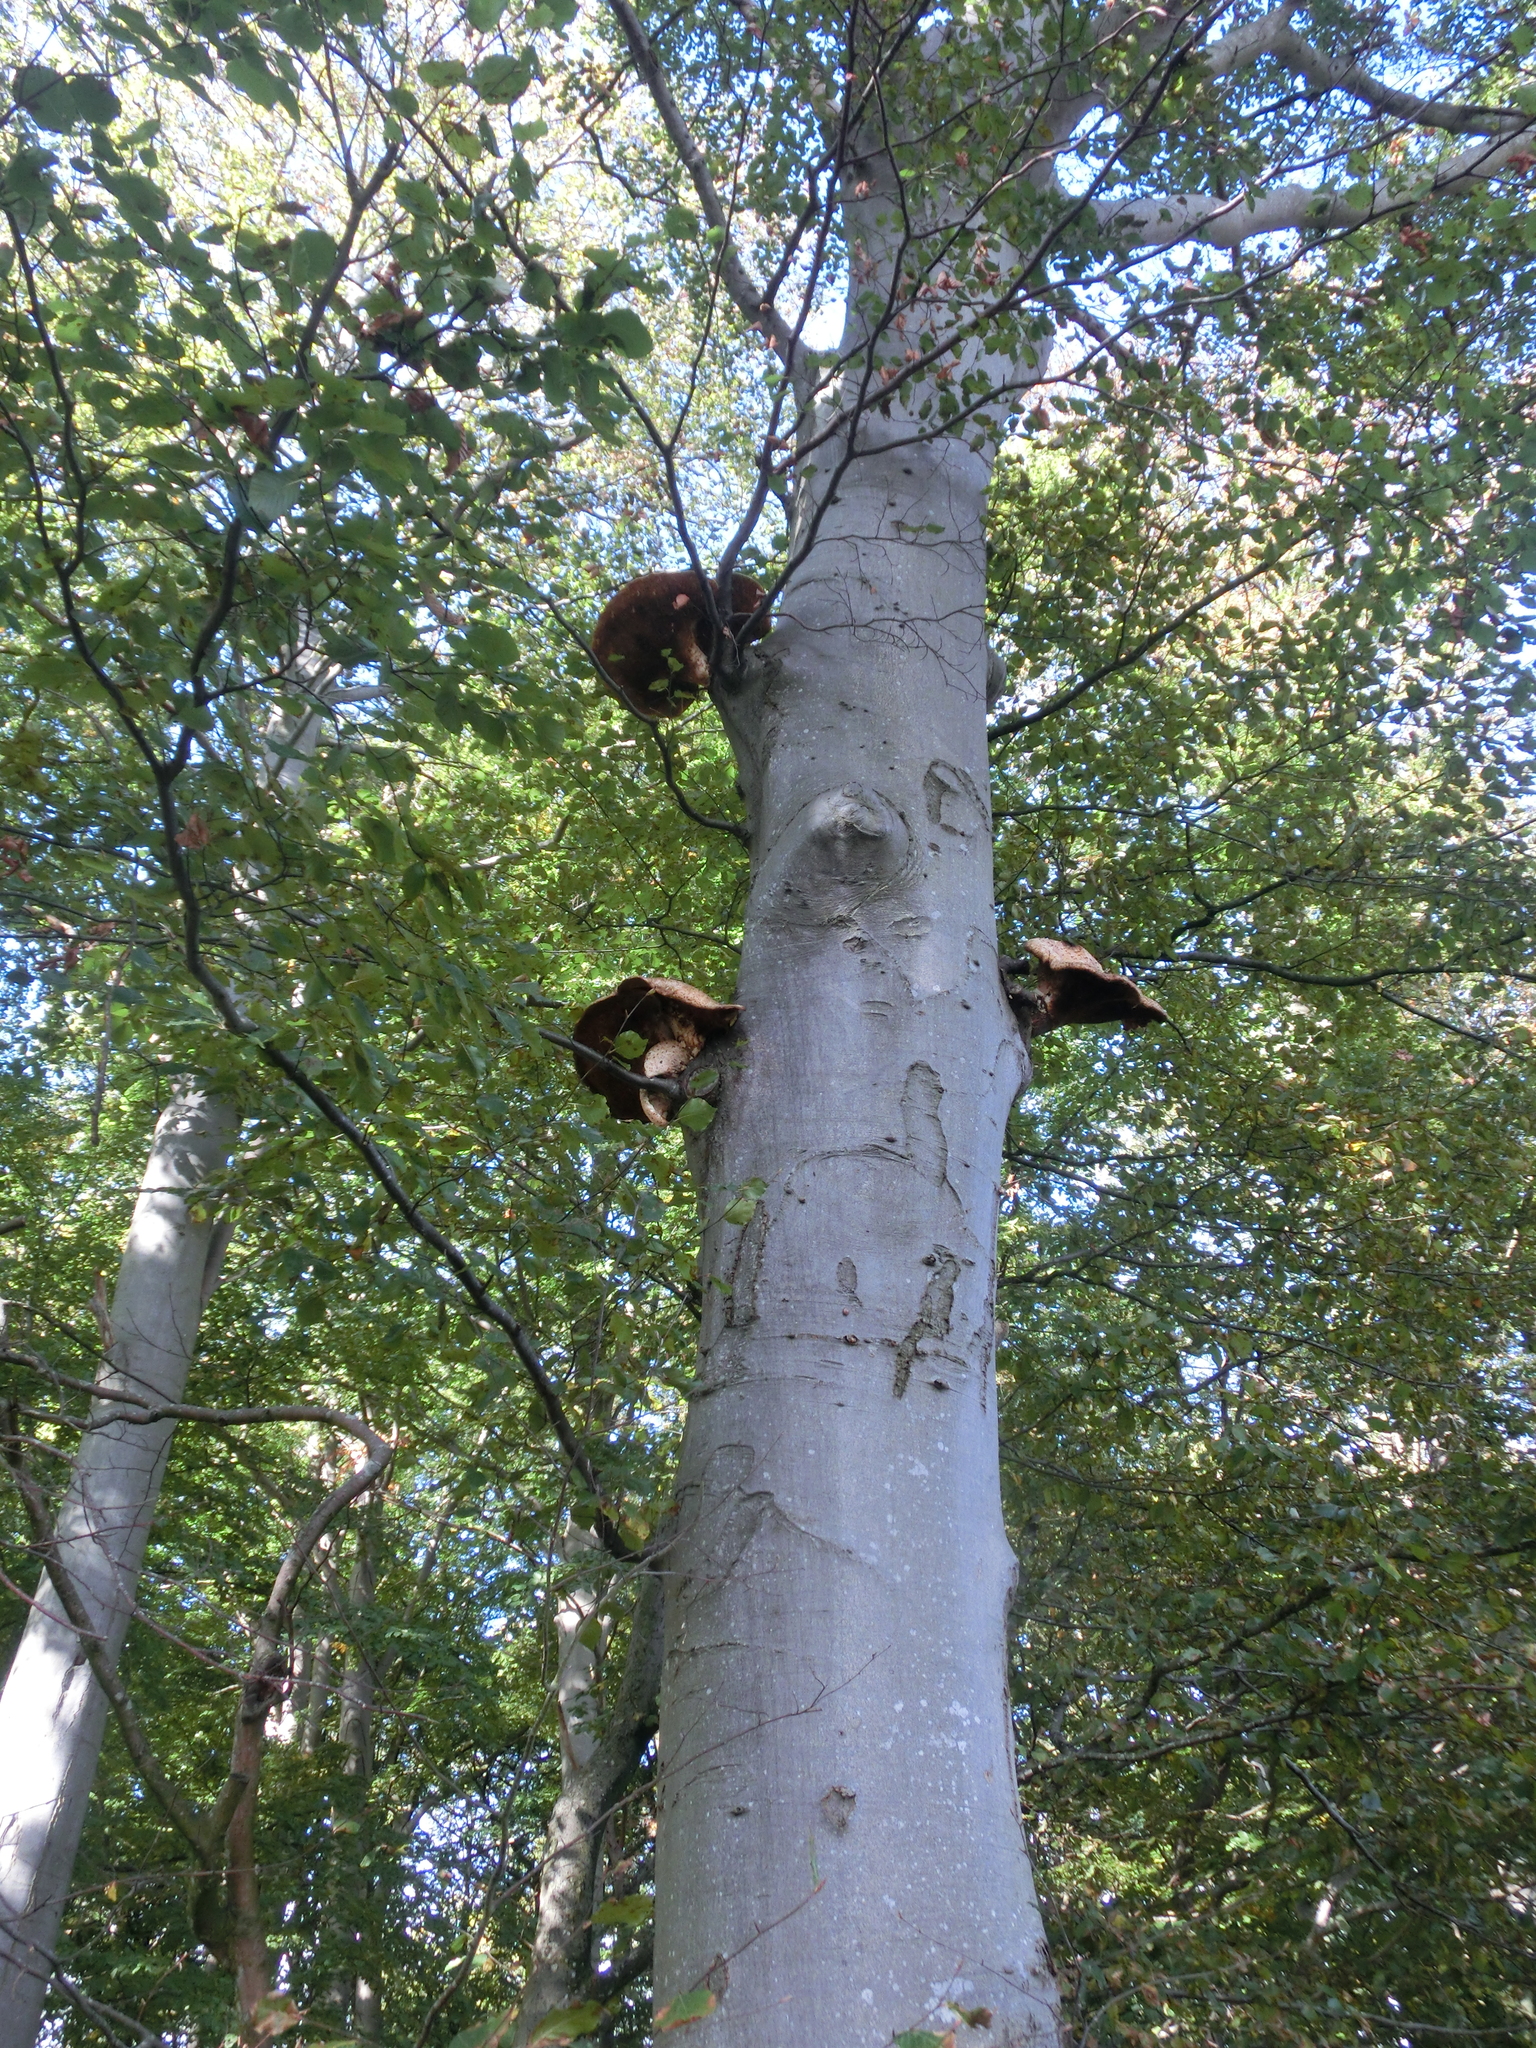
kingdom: Fungi
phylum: Basidiomycota
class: Agaricomycetes
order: Polyporales
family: Polyporaceae
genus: Cerioporus
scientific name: Cerioporus squamosus
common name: Dryad's saddle
